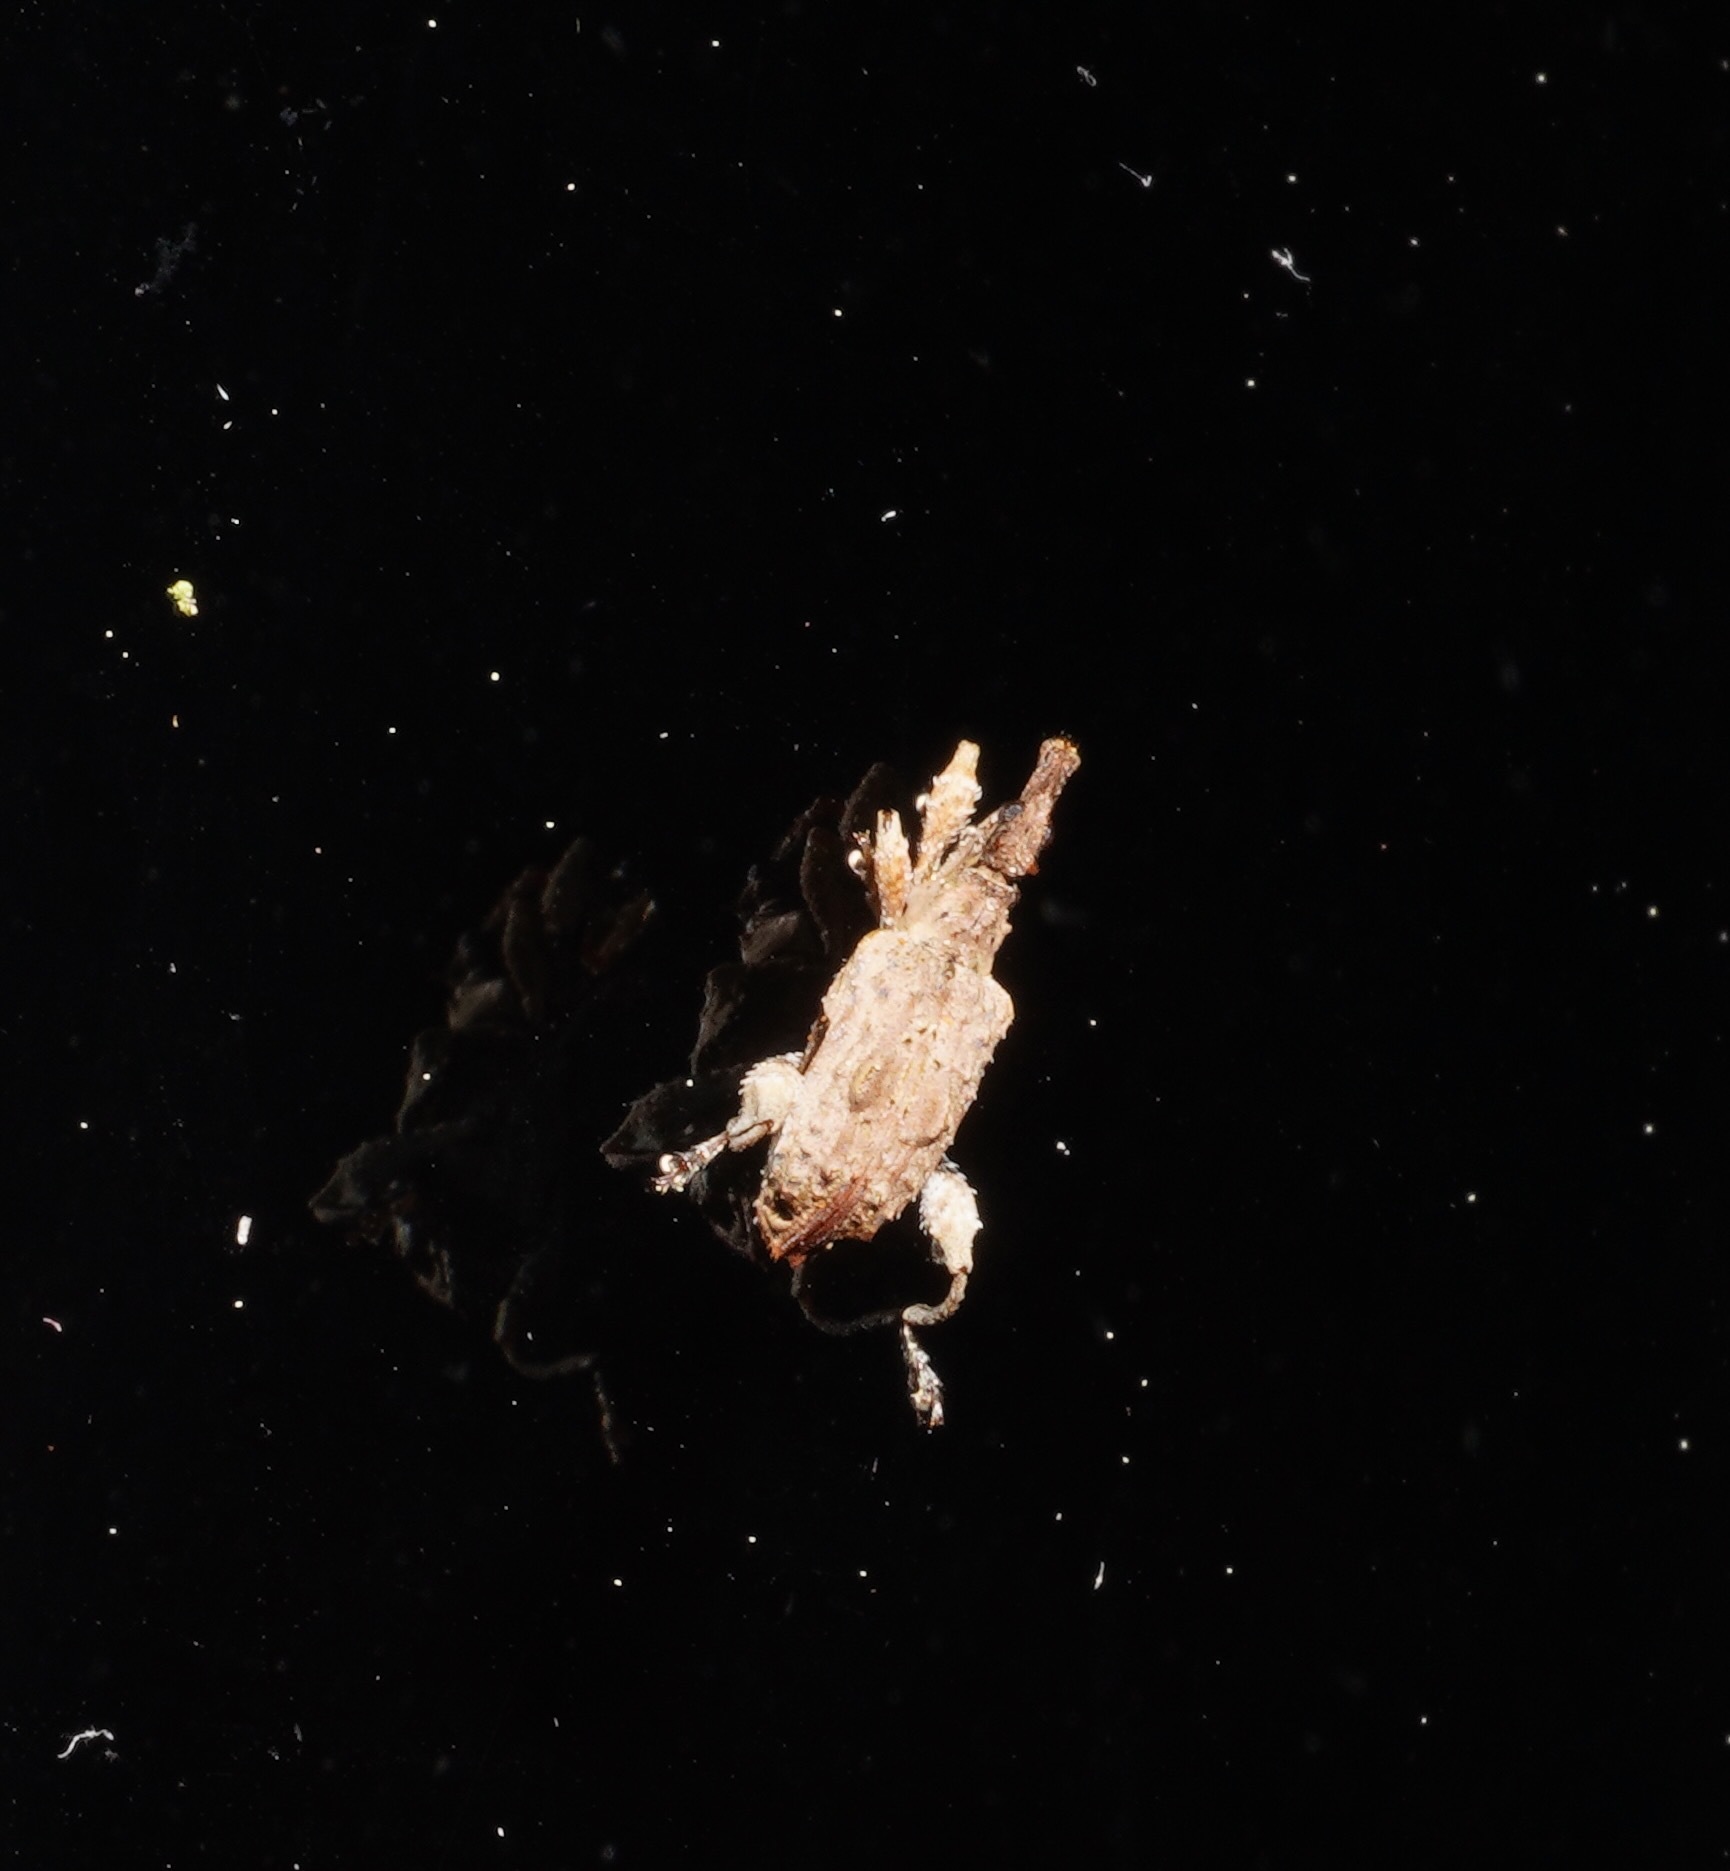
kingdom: Animalia
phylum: Arthropoda
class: Insecta
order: Coleoptera
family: Curculionidae
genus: Stephanorhynchus
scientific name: Stephanorhynchus curvipes
